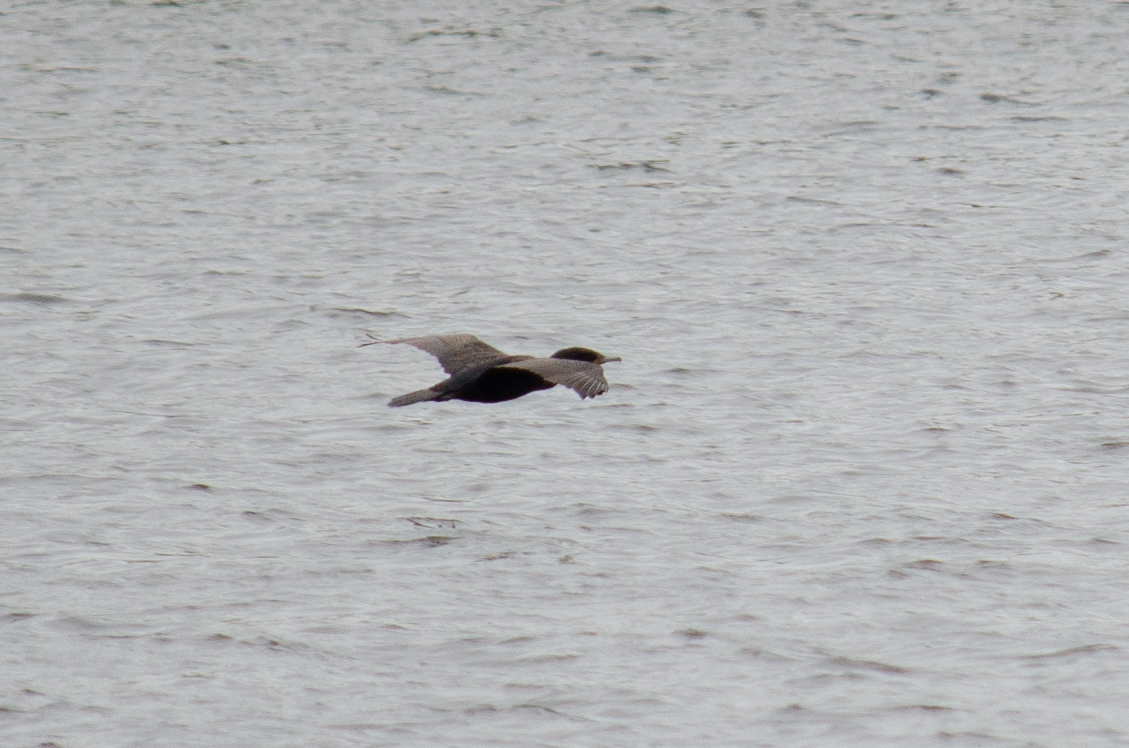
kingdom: Animalia
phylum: Chordata
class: Aves
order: Suliformes
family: Phalacrocoracidae
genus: Phalacrocorax
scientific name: Phalacrocorax auritus
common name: Double-crested cormorant
